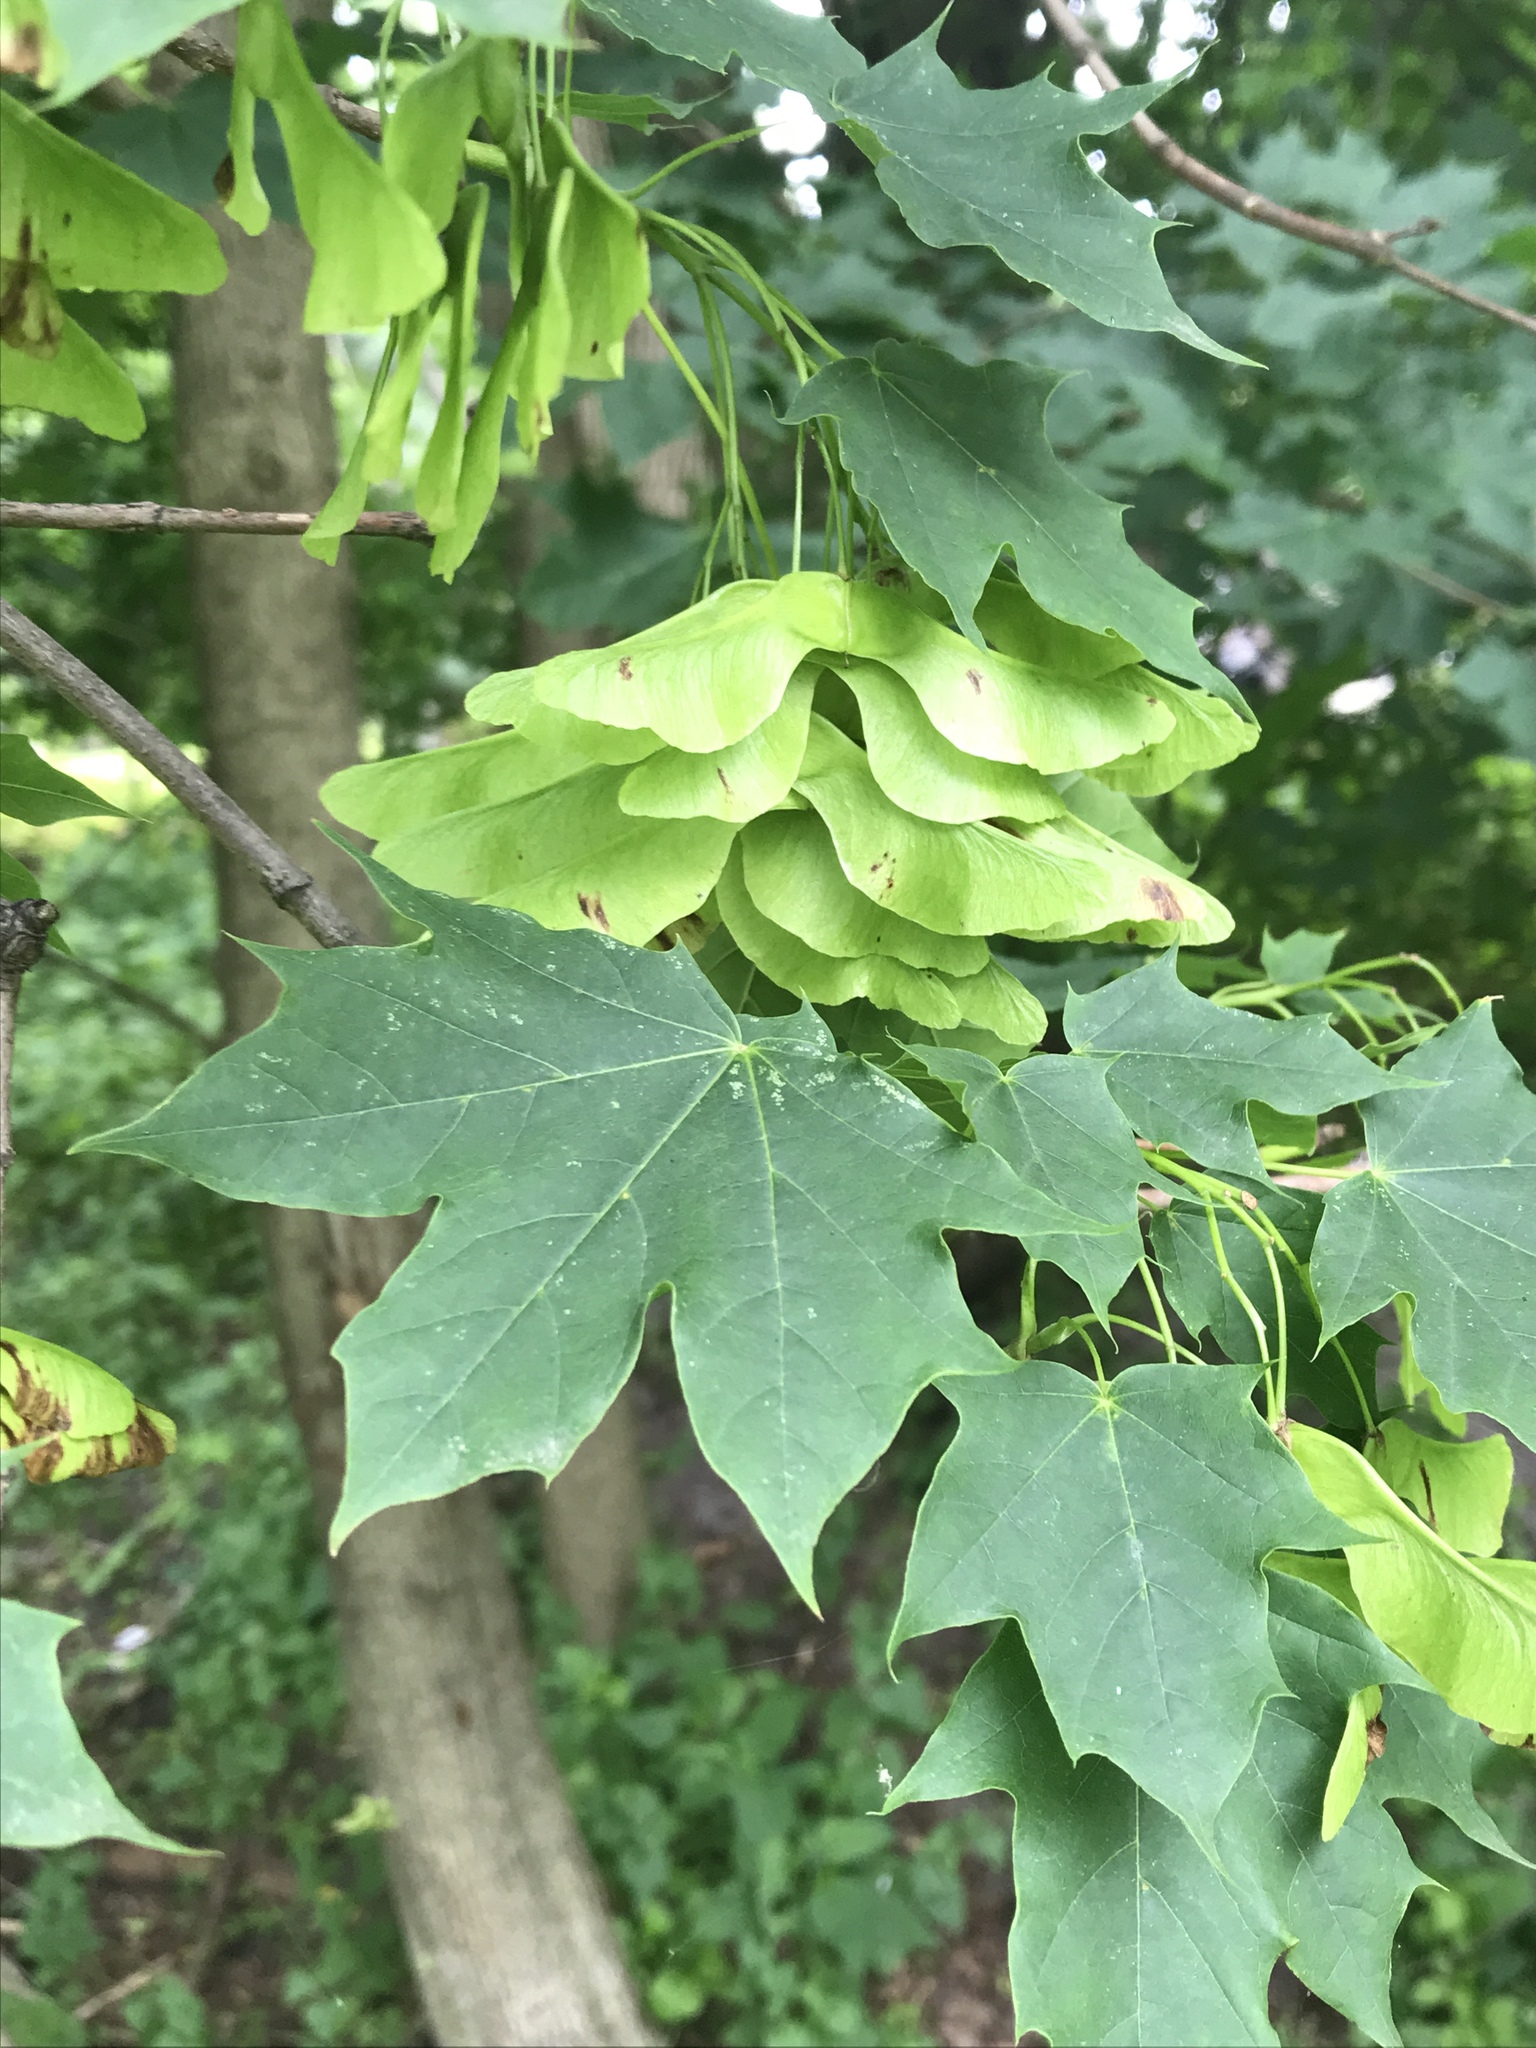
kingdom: Plantae
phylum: Tracheophyta
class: Magnoliopsida
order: Sapindales
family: Sapindaceae
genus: Acer
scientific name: Acer platanoides
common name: Norway maple
